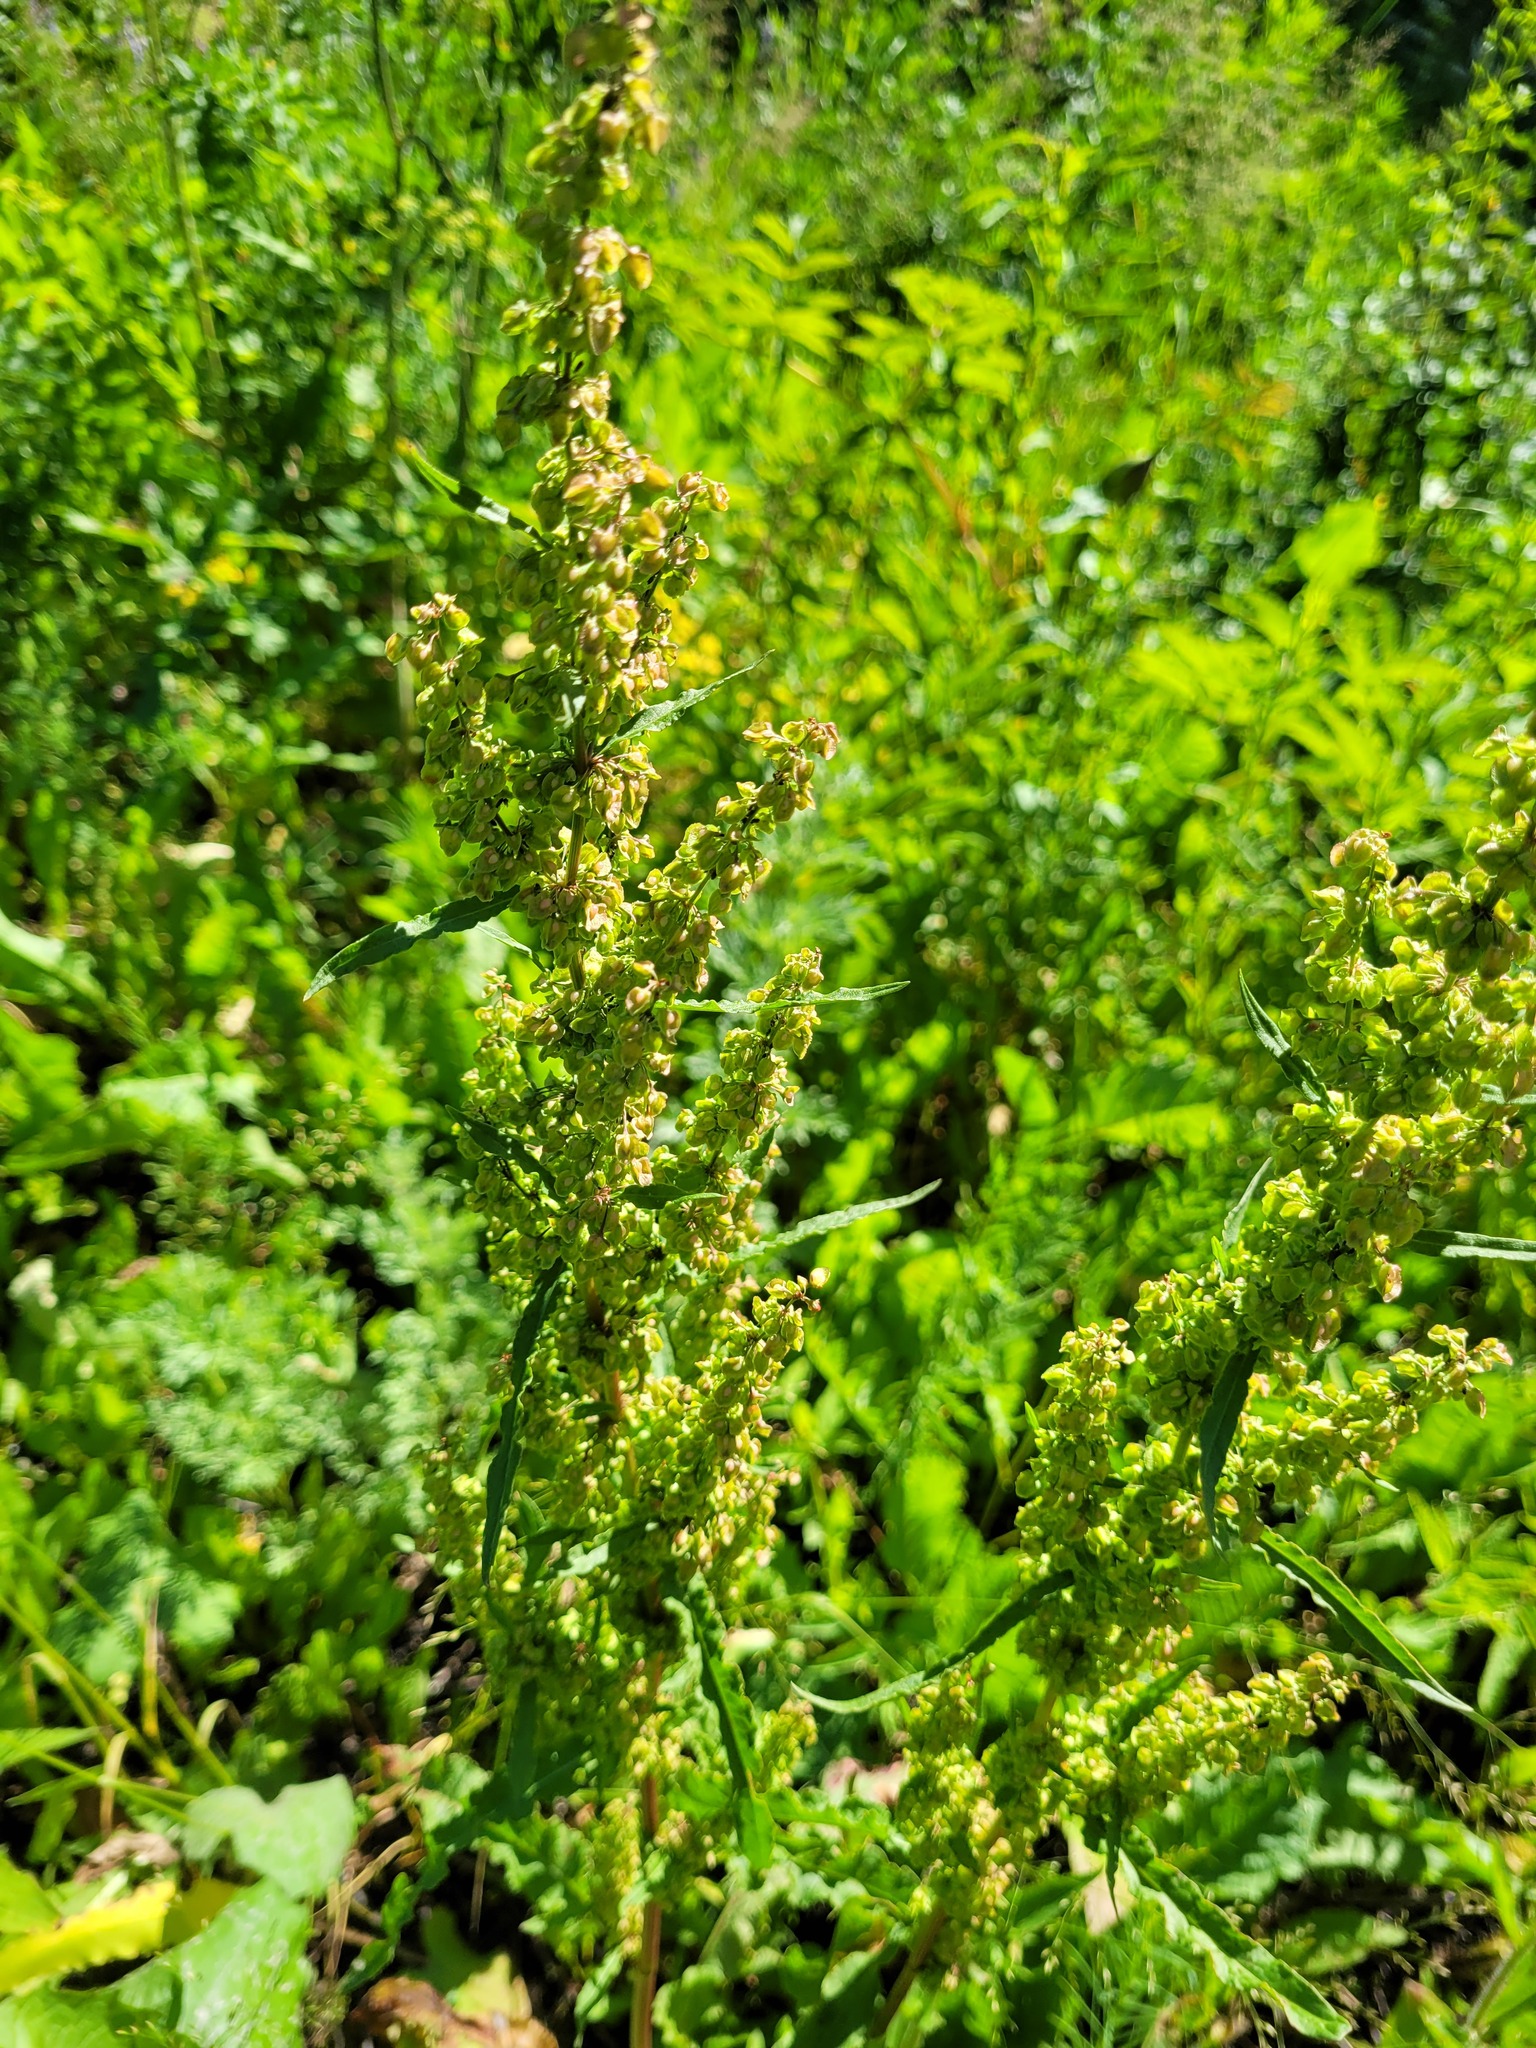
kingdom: Plantae
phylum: Tracheophyta
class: Magnoliopsida
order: Caryophyllales
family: Polygonaceae
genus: Rumex
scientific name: Rumex crispus
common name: Curled dock
